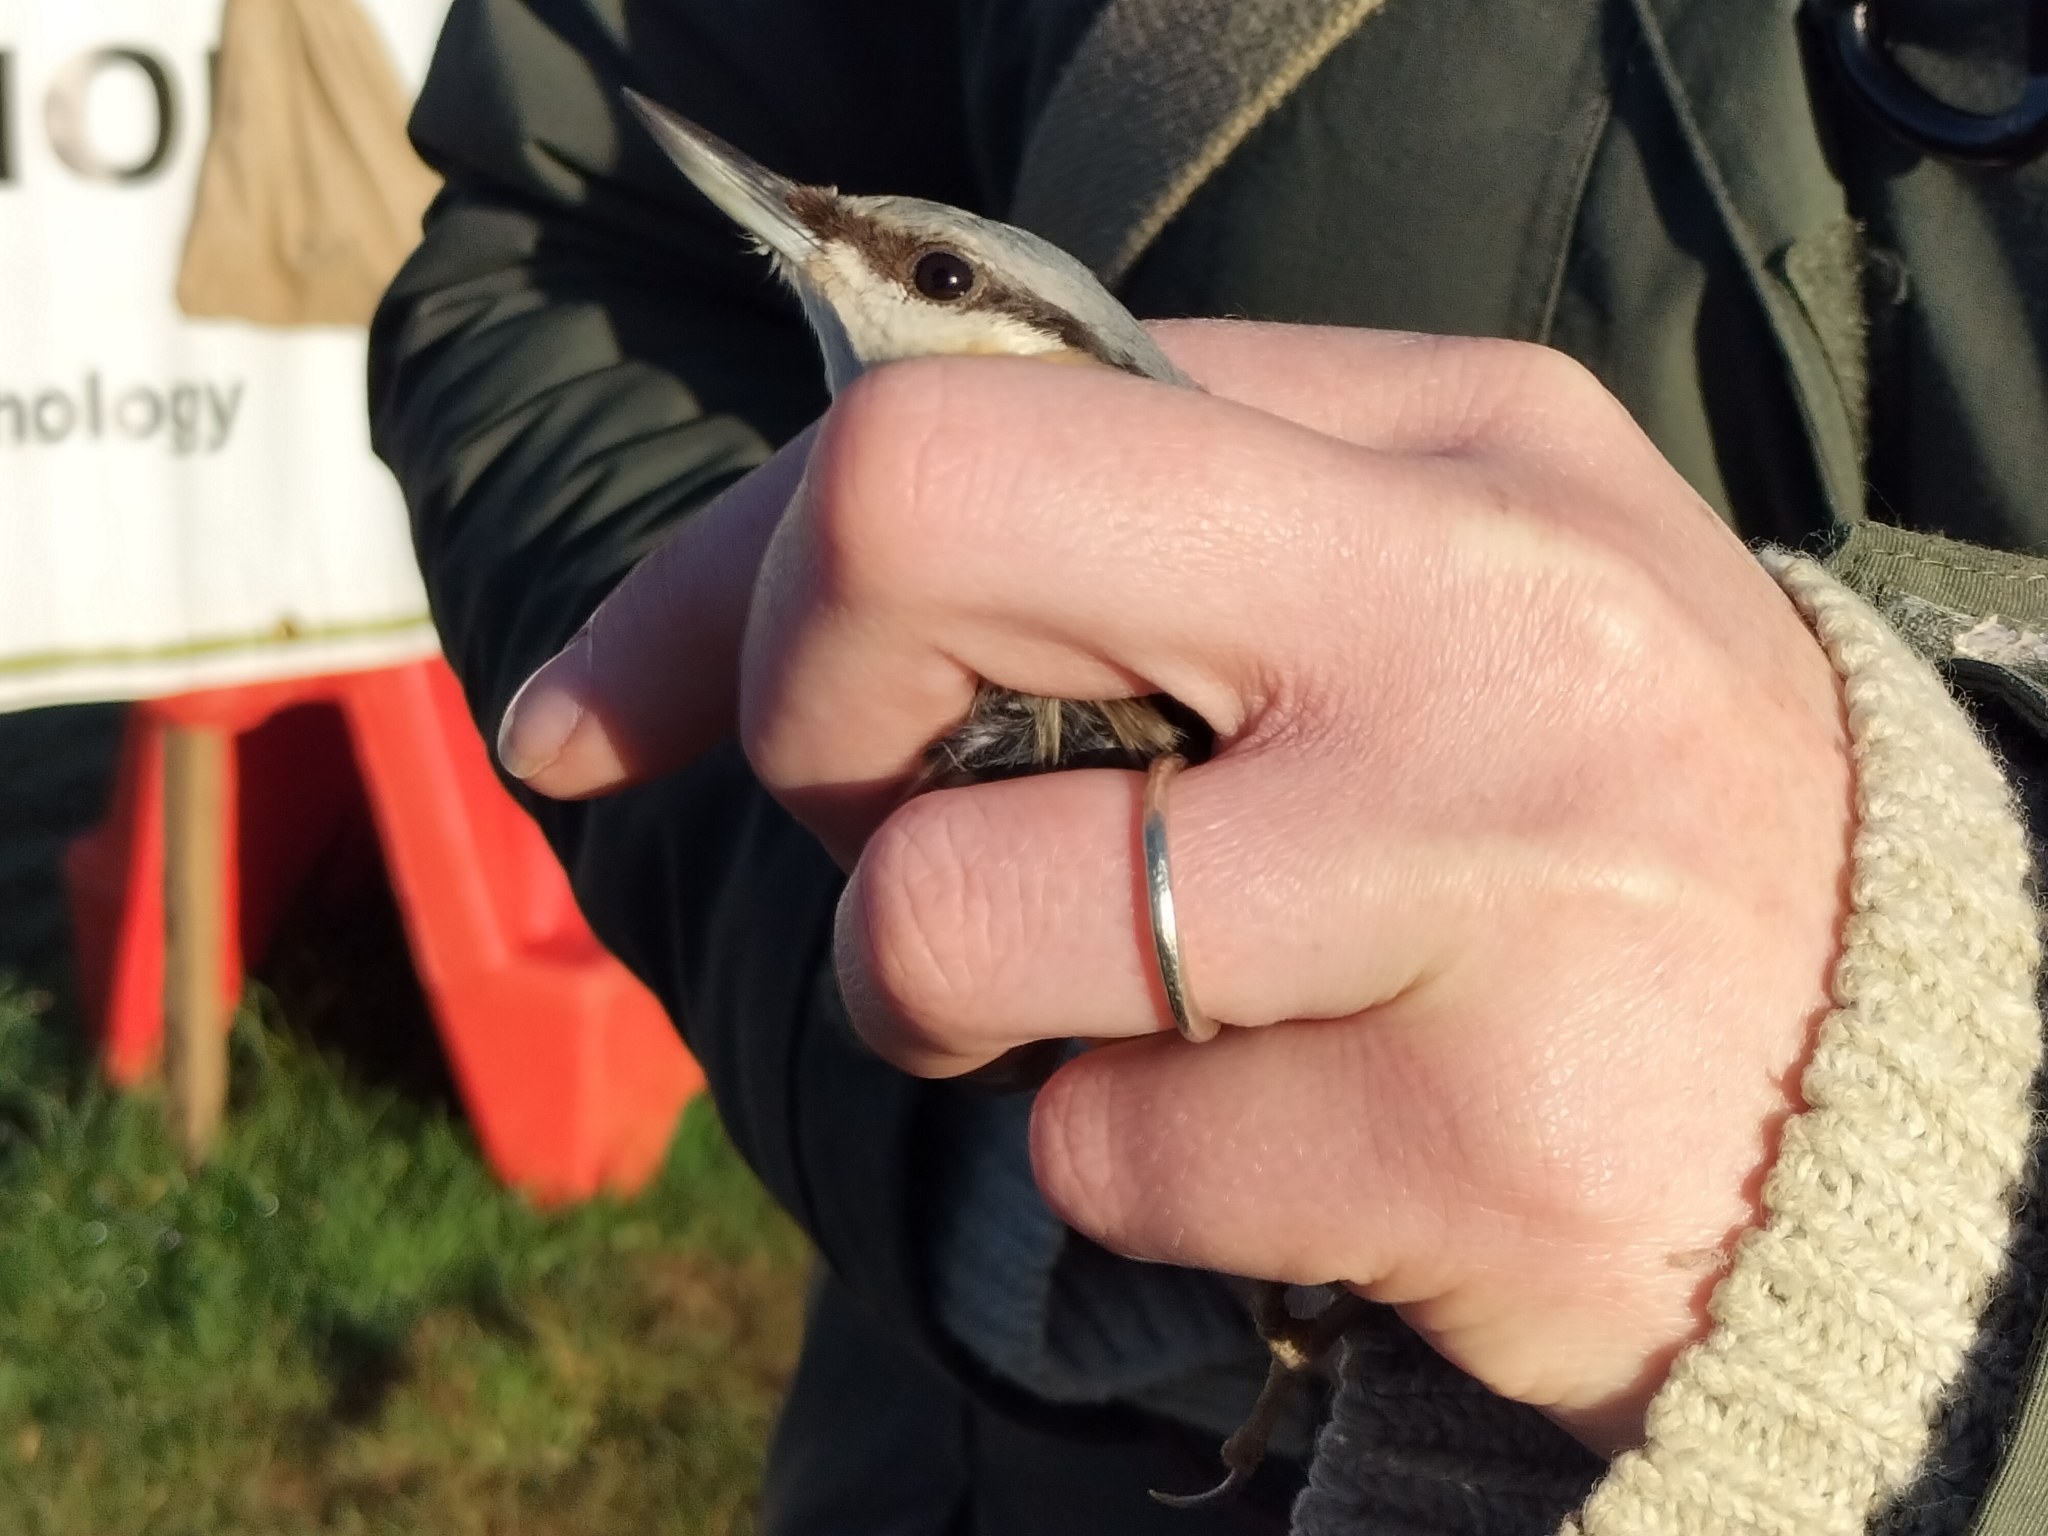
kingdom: Animalia
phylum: Chordata
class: Aves
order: Passeriformes
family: Sittidae
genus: Sitta
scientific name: Sitta europaea
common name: Eurasian nuthatch
